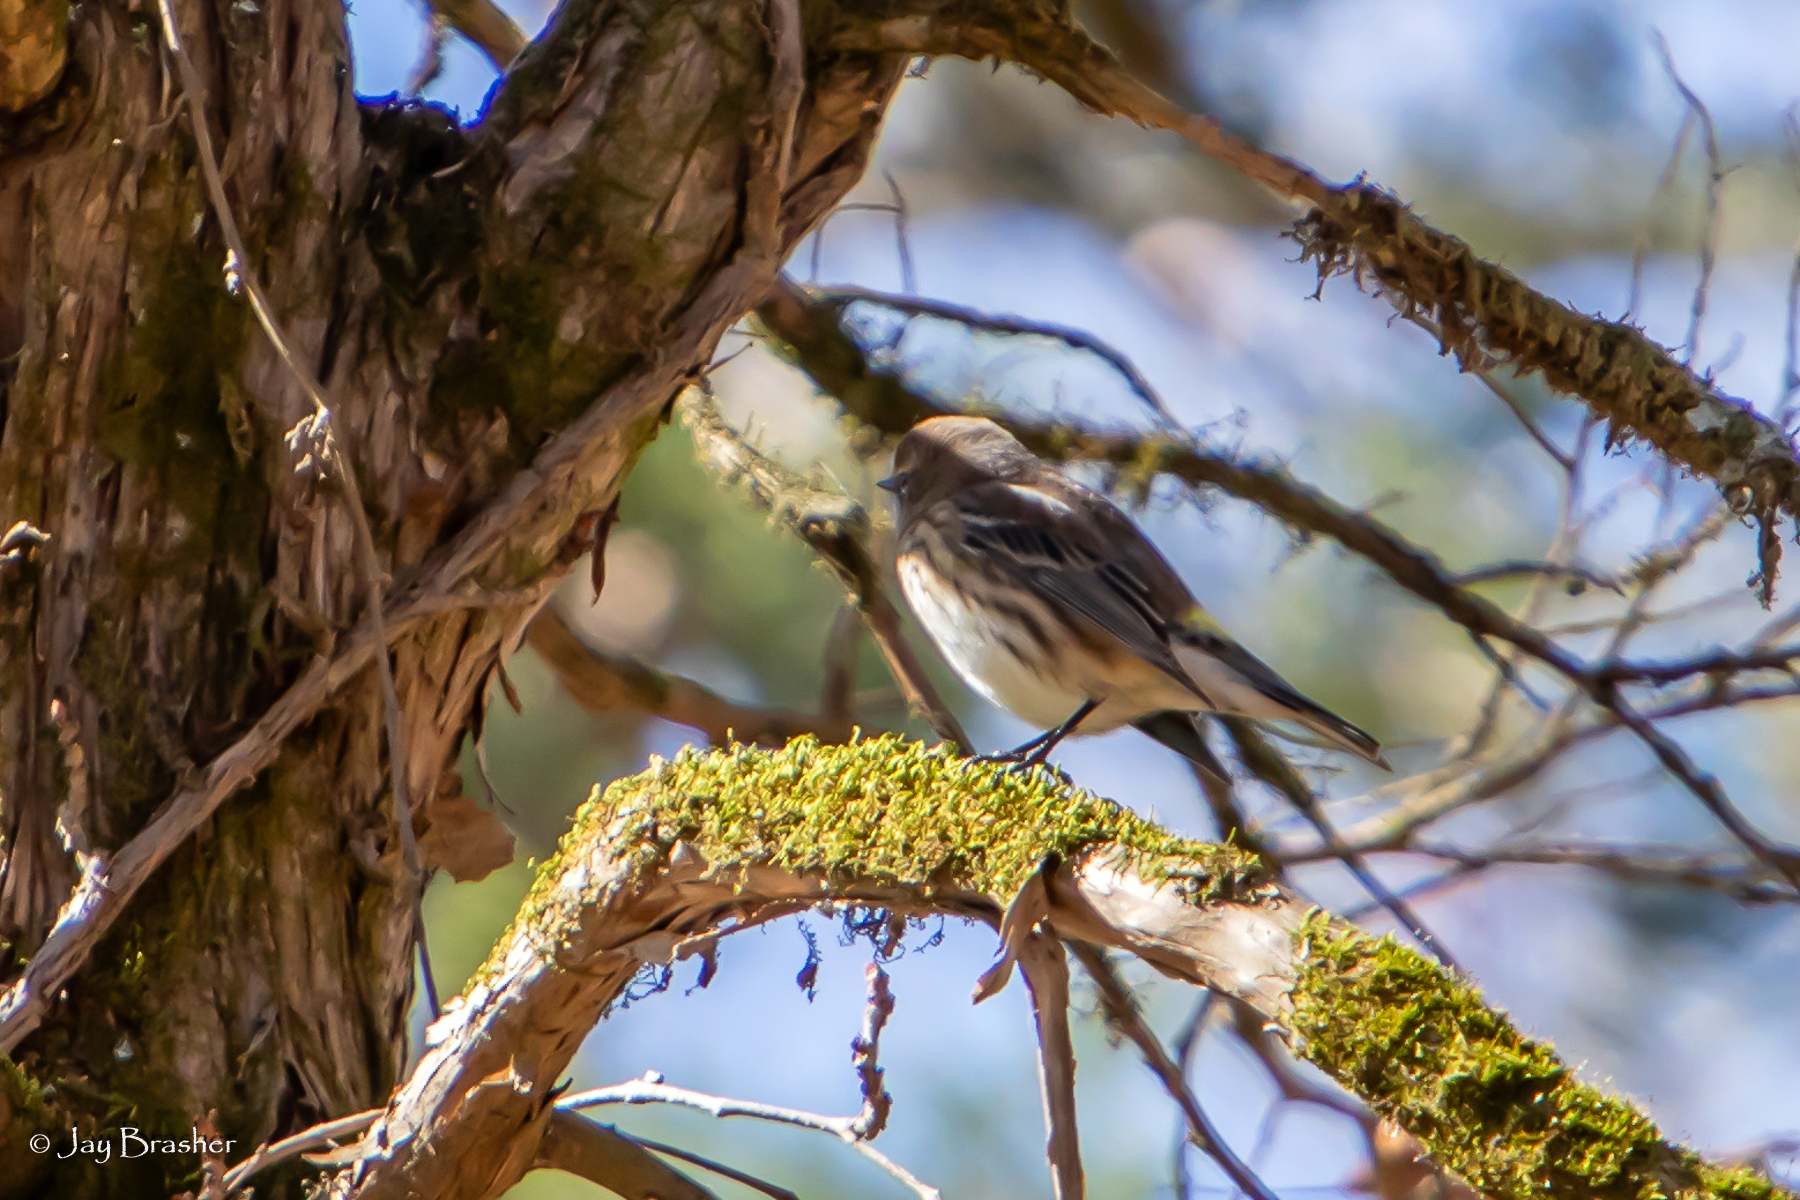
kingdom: Animalia
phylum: Chordata
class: Aves
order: Passeriformes
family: Parulidae
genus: Setophaga
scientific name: Setophaga coronata
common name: Myrtle warbler
